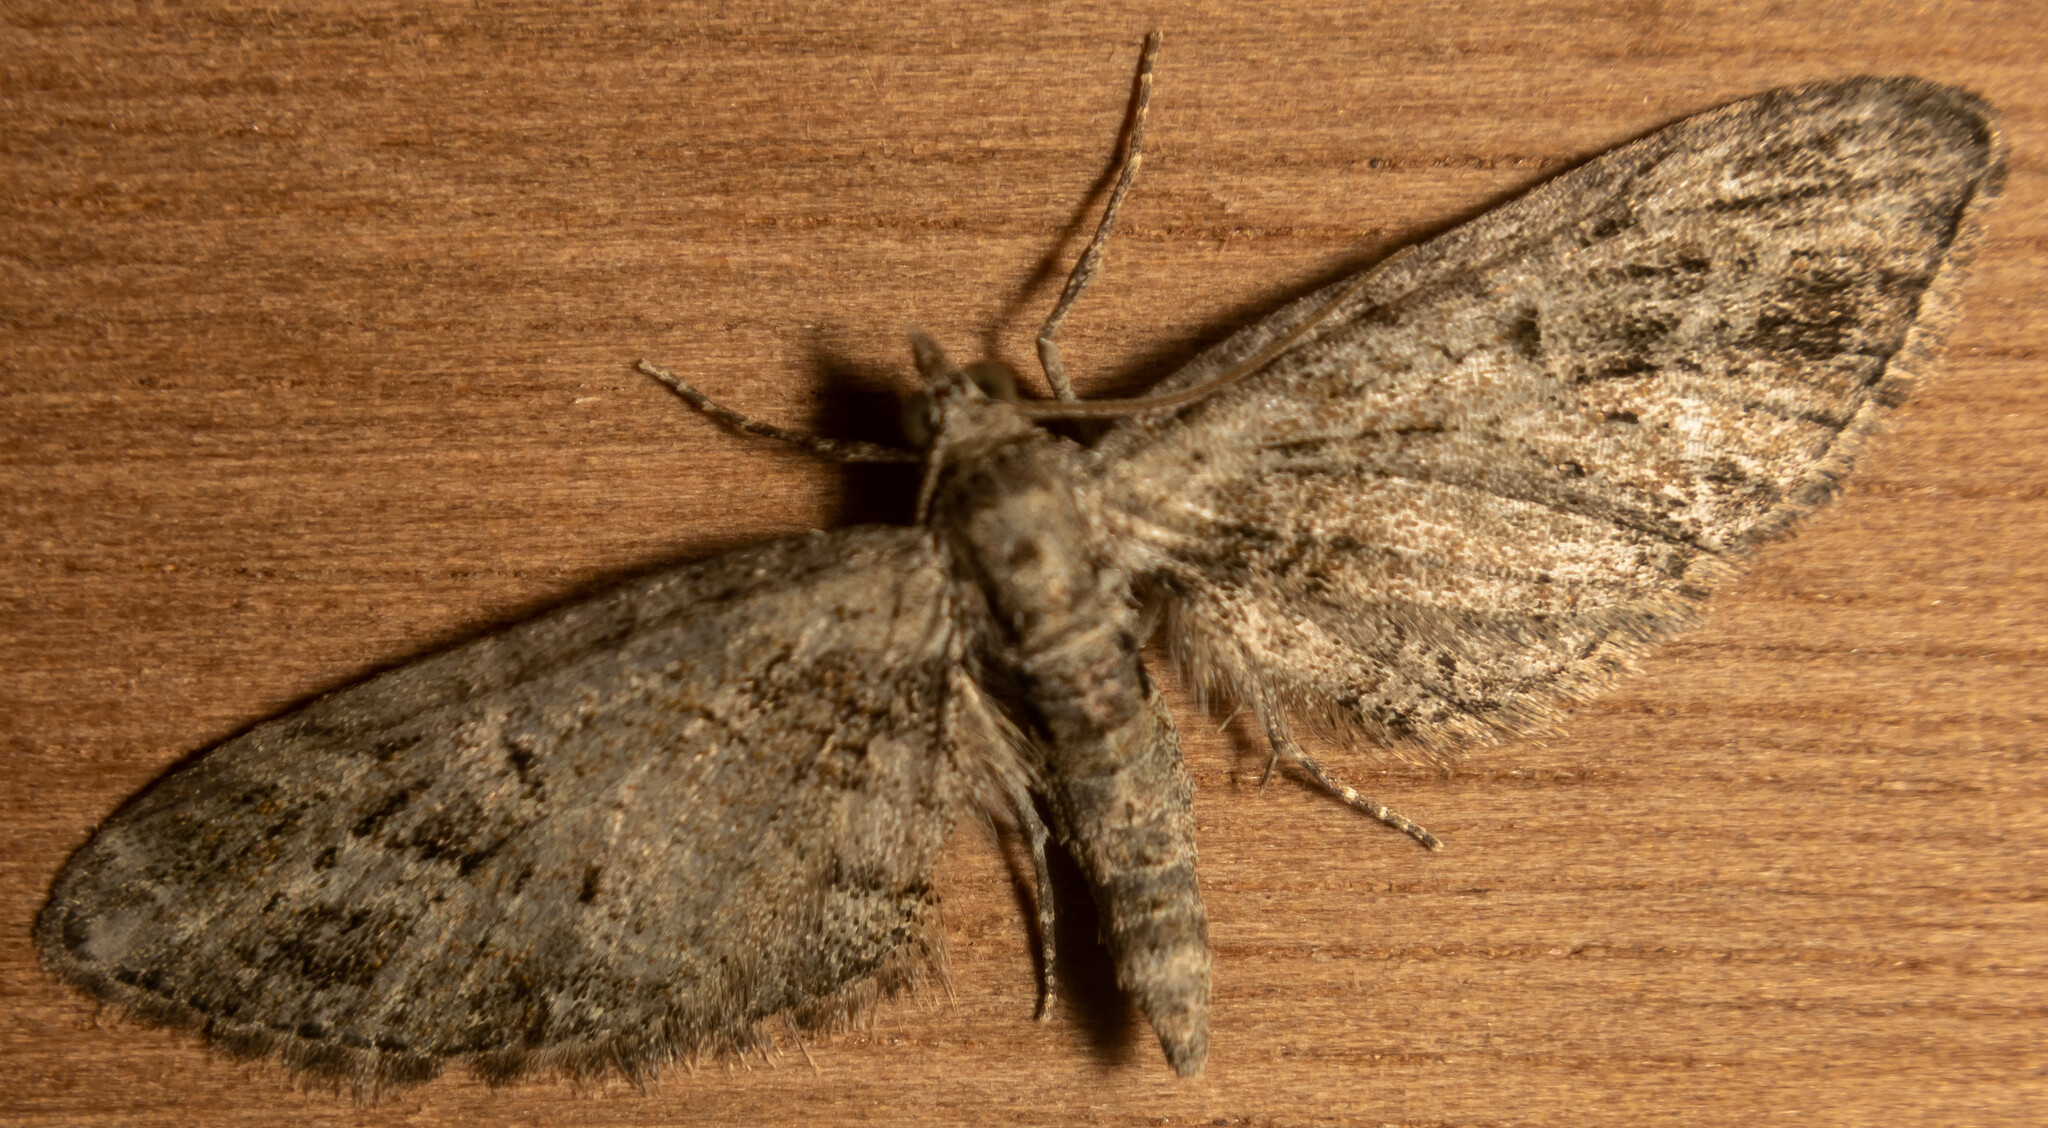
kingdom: Animalia
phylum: Arthropoda
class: Insecta
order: Lepidoptera
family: Geometridae
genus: Eupithecia
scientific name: Eupithecia exiguata
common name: Mottled pug
